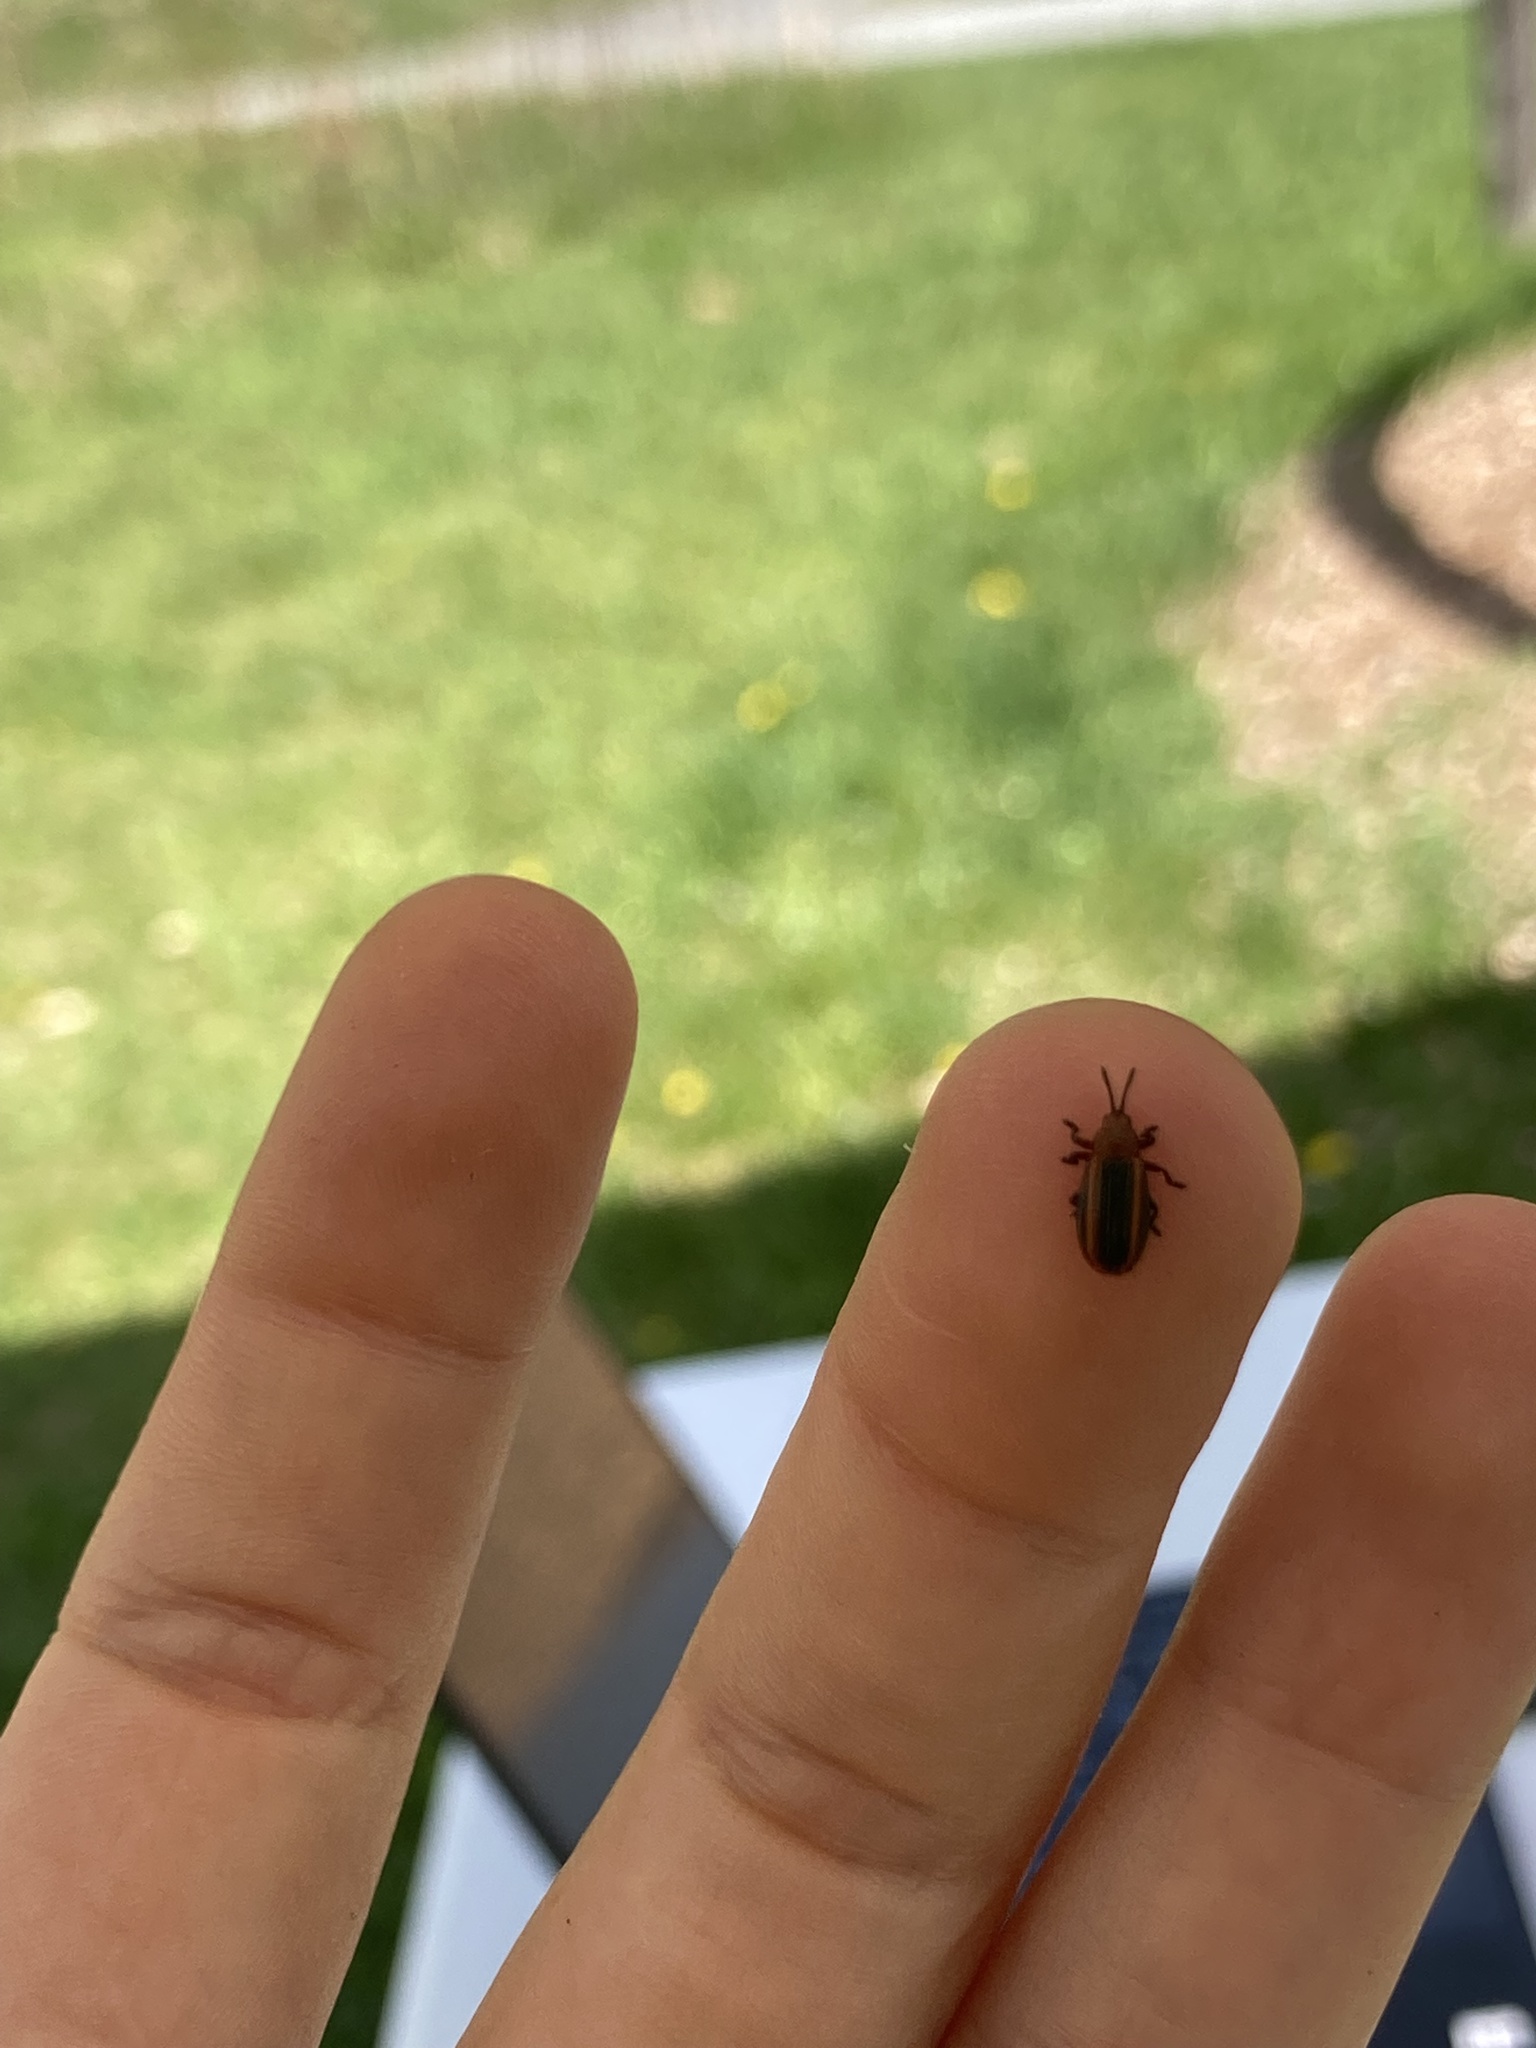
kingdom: Animalia
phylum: Arthropoda
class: Insecta
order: Coleoptera
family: Chrysomelidae
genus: Microrhopala
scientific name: Microrhopala vittata
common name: Goldenrod leaf miner beetle
